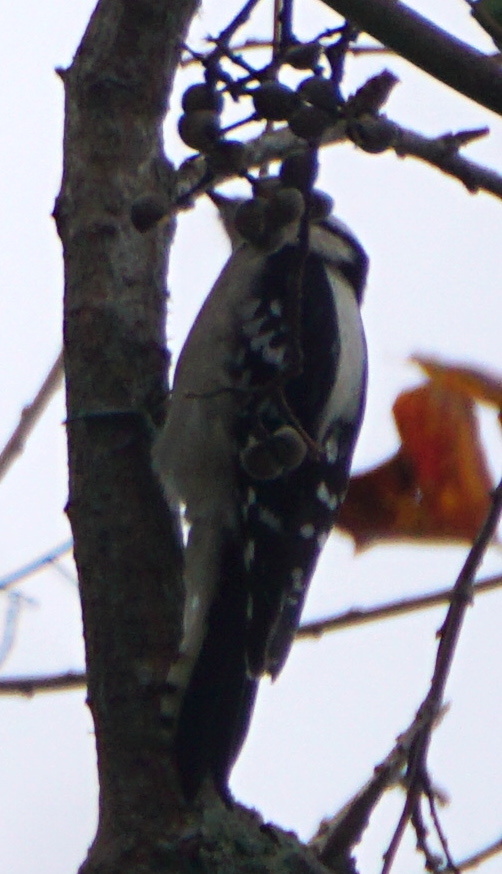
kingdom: Animalia
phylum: Chordata
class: Aves
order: Piciformes
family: Picidae
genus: Dryobates
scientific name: Dryobates pubescens
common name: Downy woodpecker
